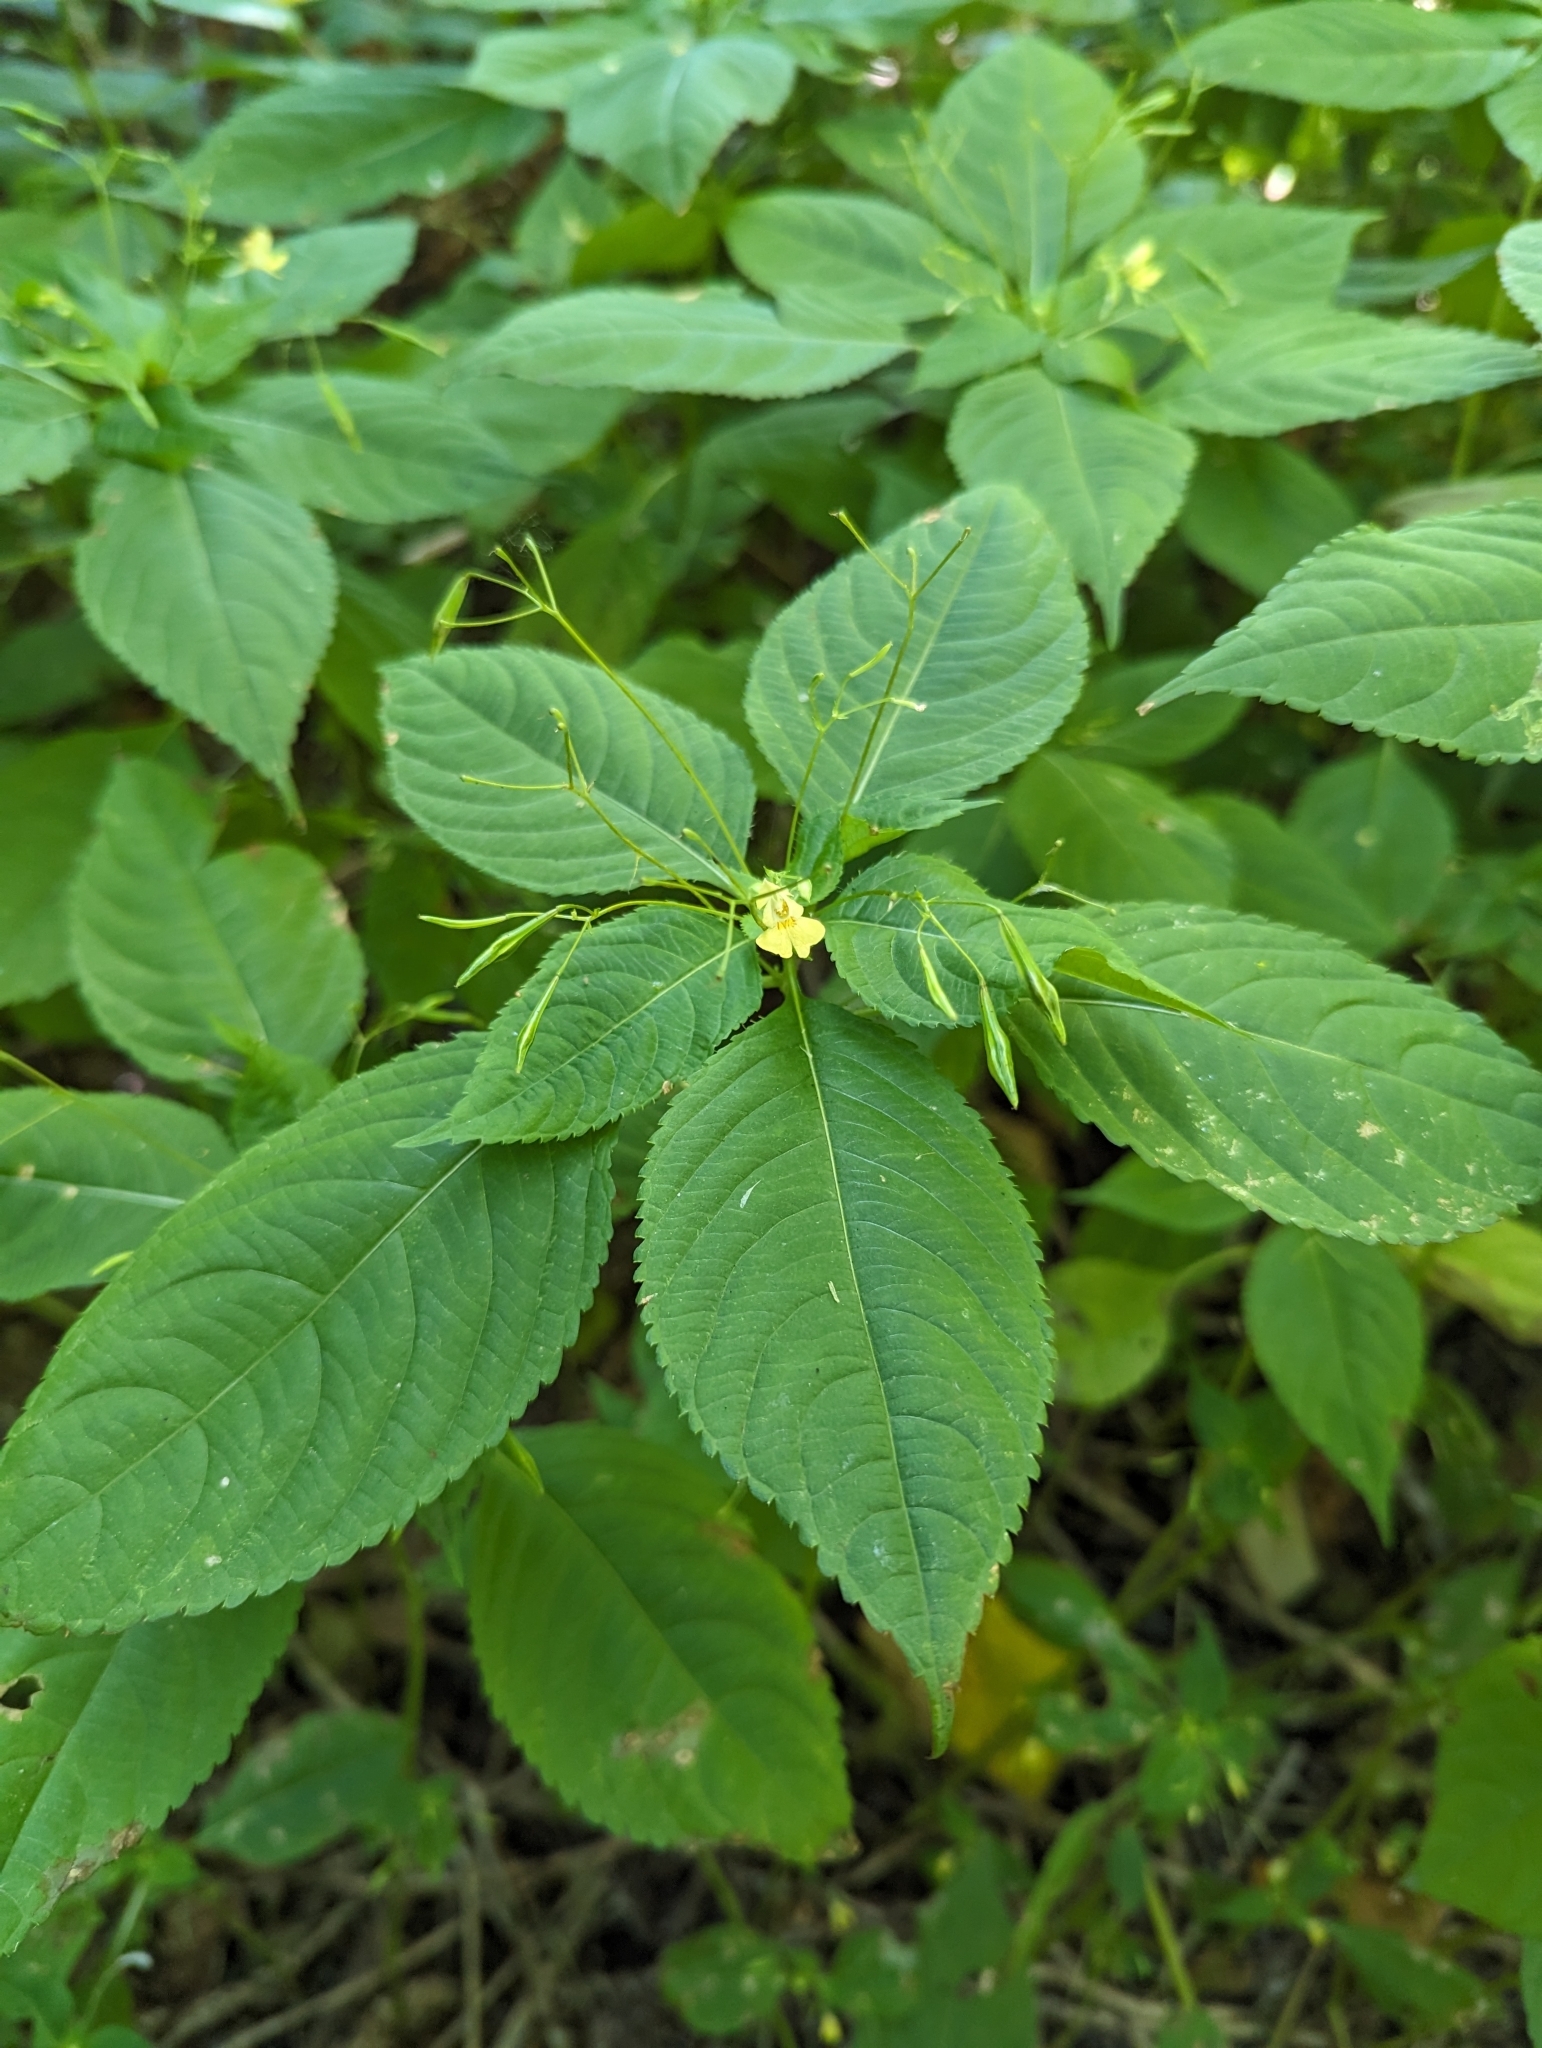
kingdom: Plantae
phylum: Tracheophyta
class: Magnoliopsida
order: Ericales
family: Balsaminaceae
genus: Impatiens
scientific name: Impatiens parviflora
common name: Small balsam
